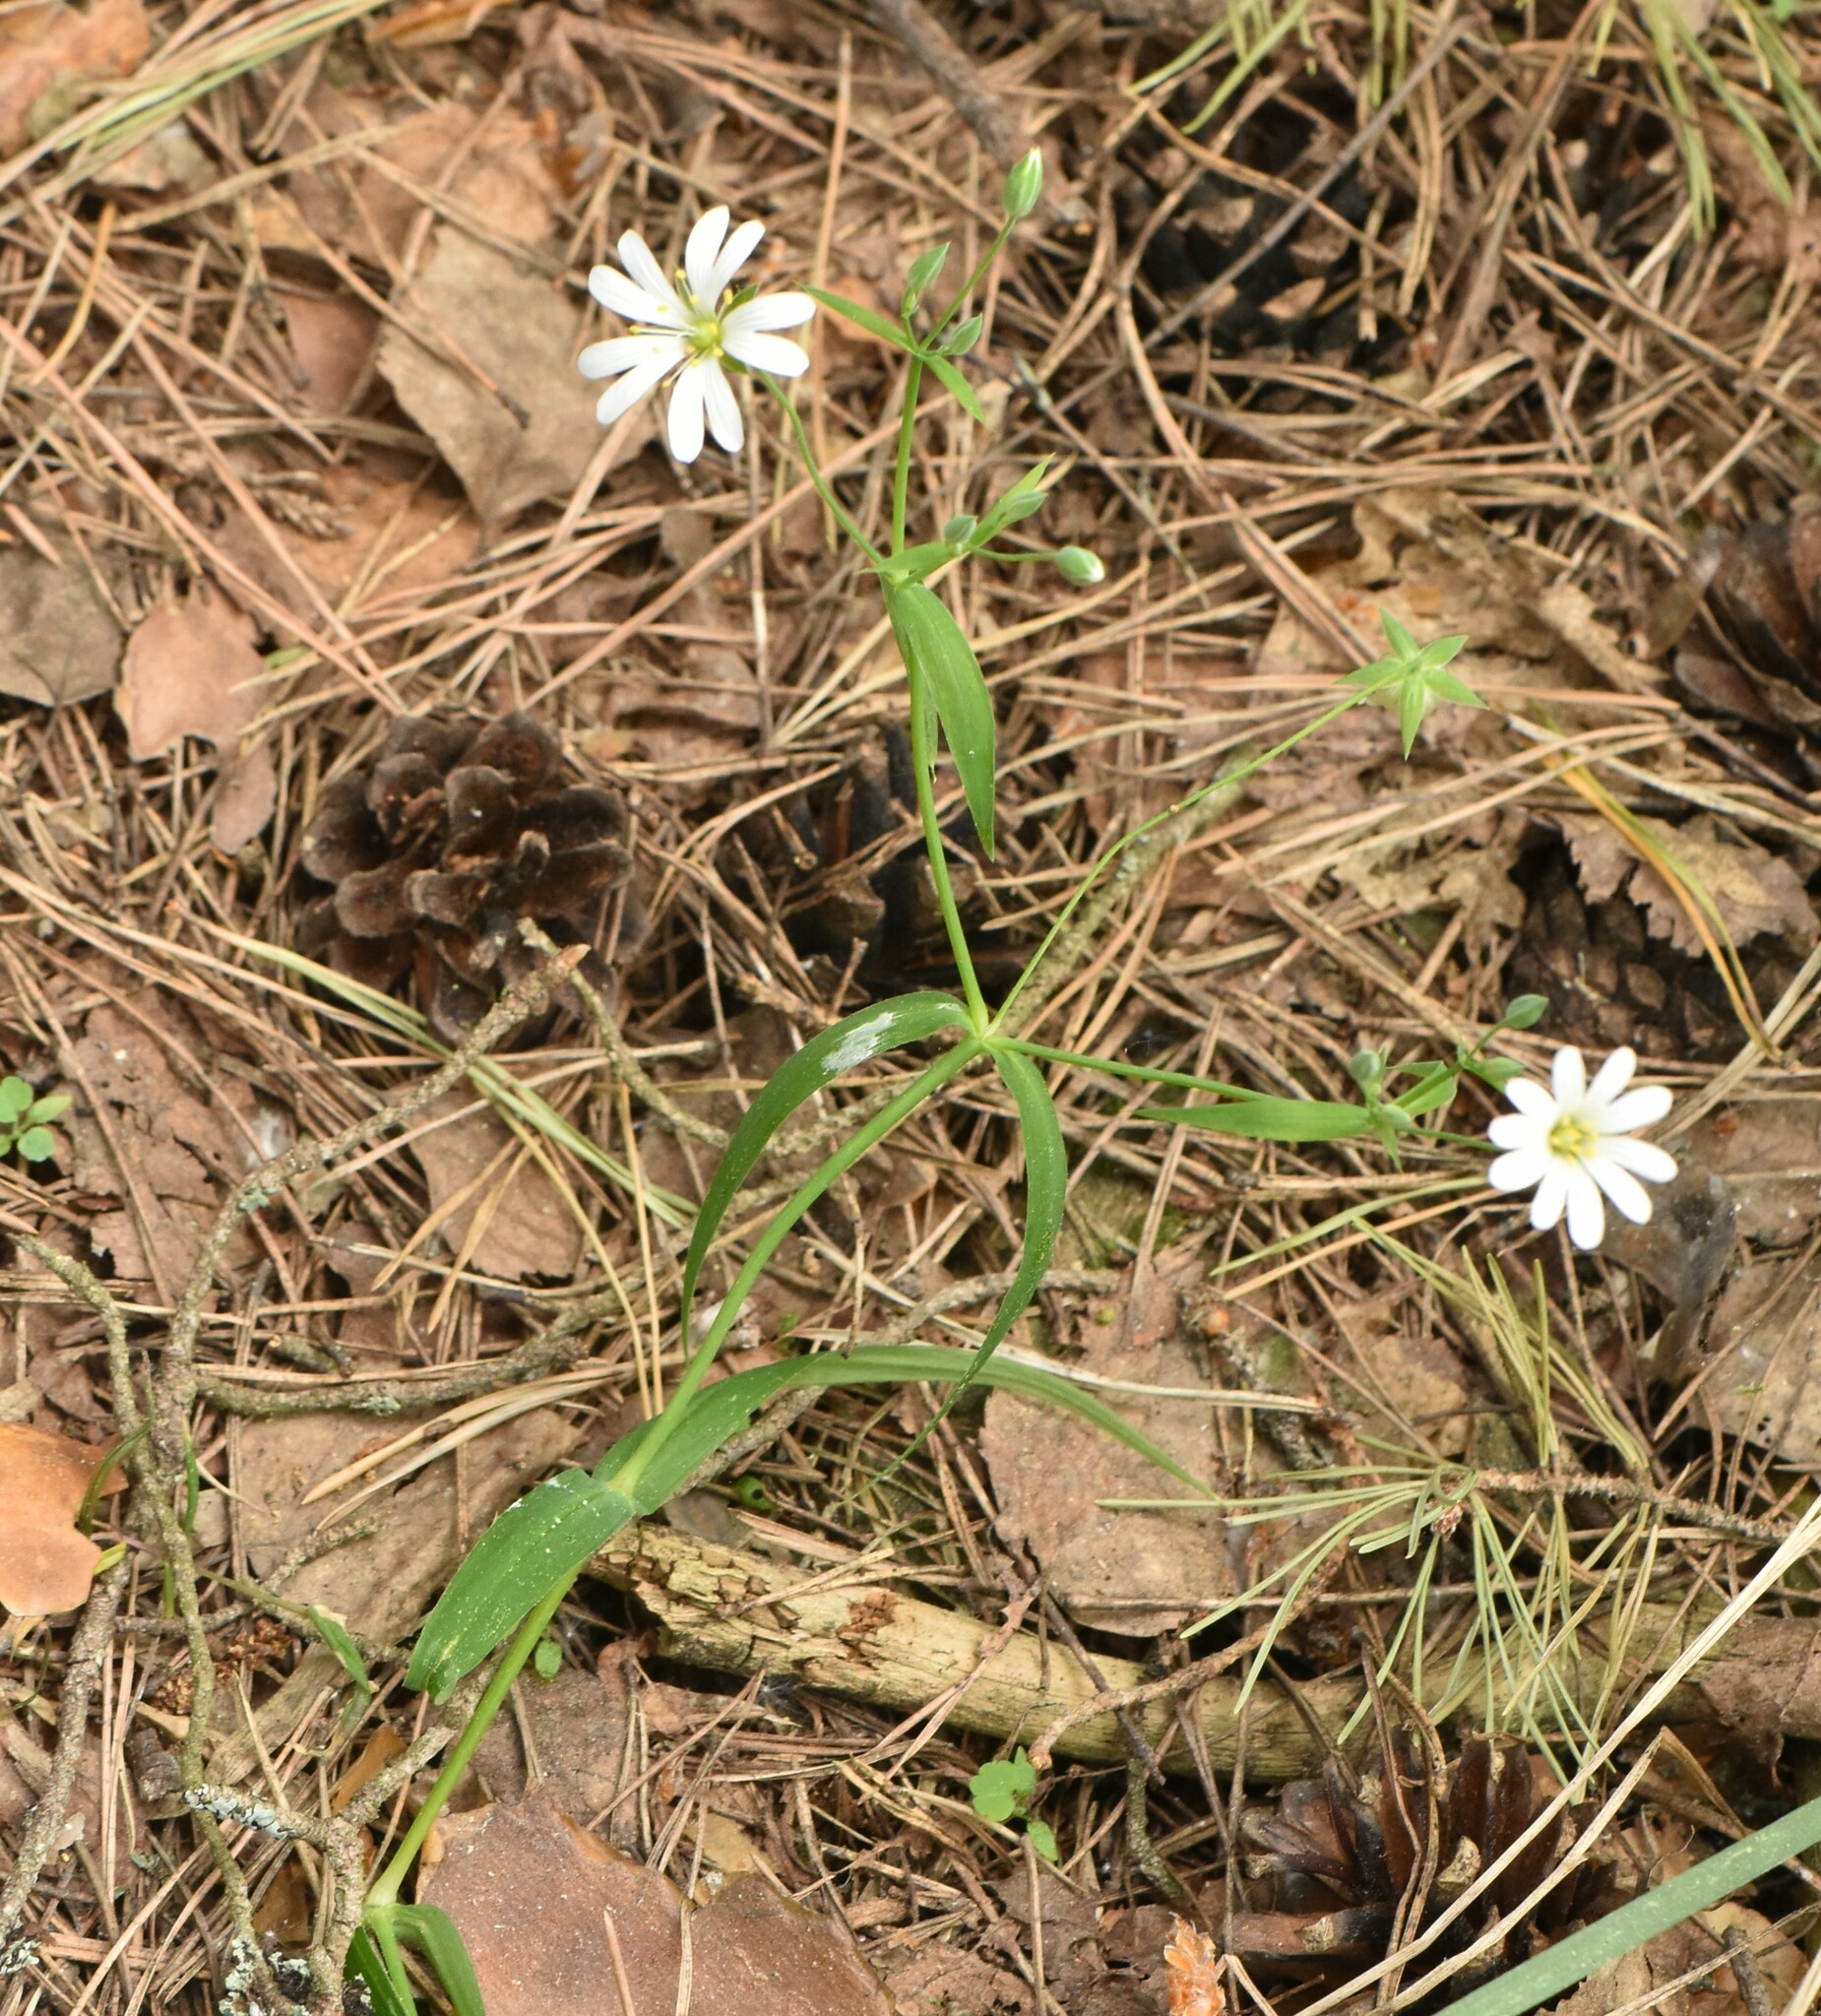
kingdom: Plantae
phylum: Tracheophyta
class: Magnoliopsida
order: Caryophyllales
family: Caryophyllaceae
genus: Rabelera
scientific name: Rabelera holostea
